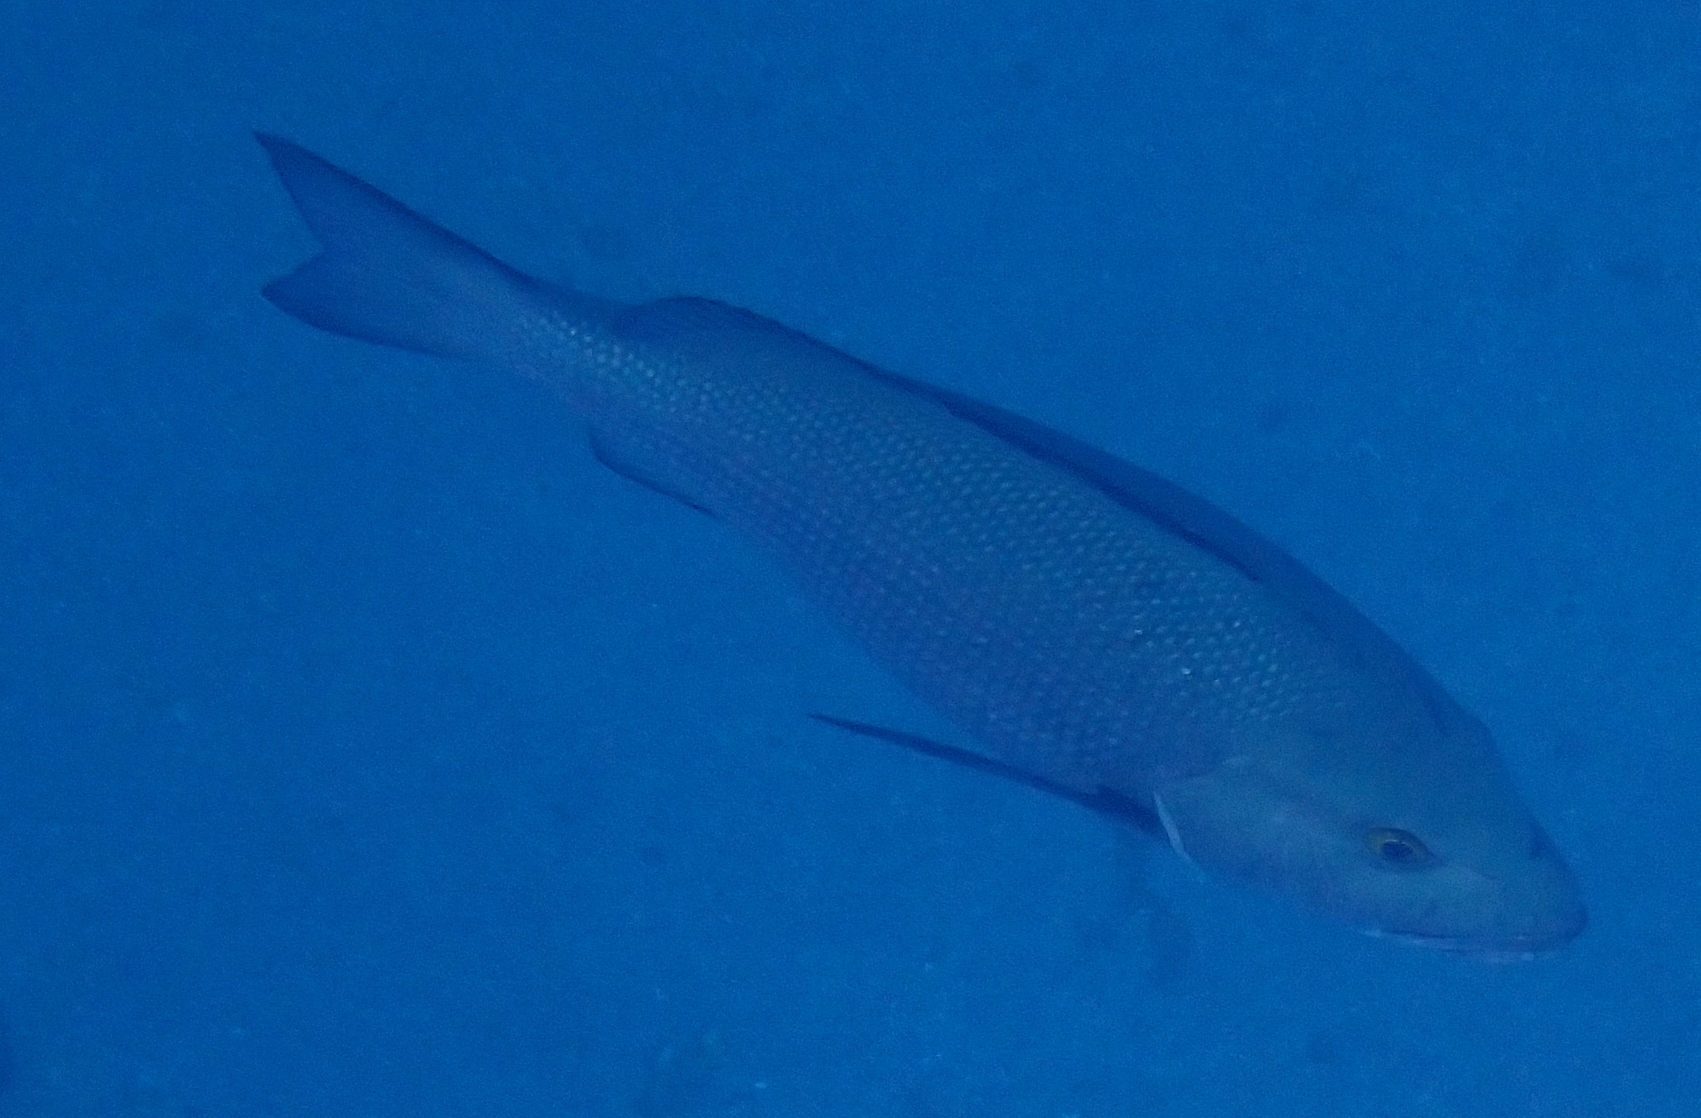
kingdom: Animalia
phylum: Chordata
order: Perciformes
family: Lutjanidae
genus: Lutjanus
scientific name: Lutjanus bohar
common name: Red bass
